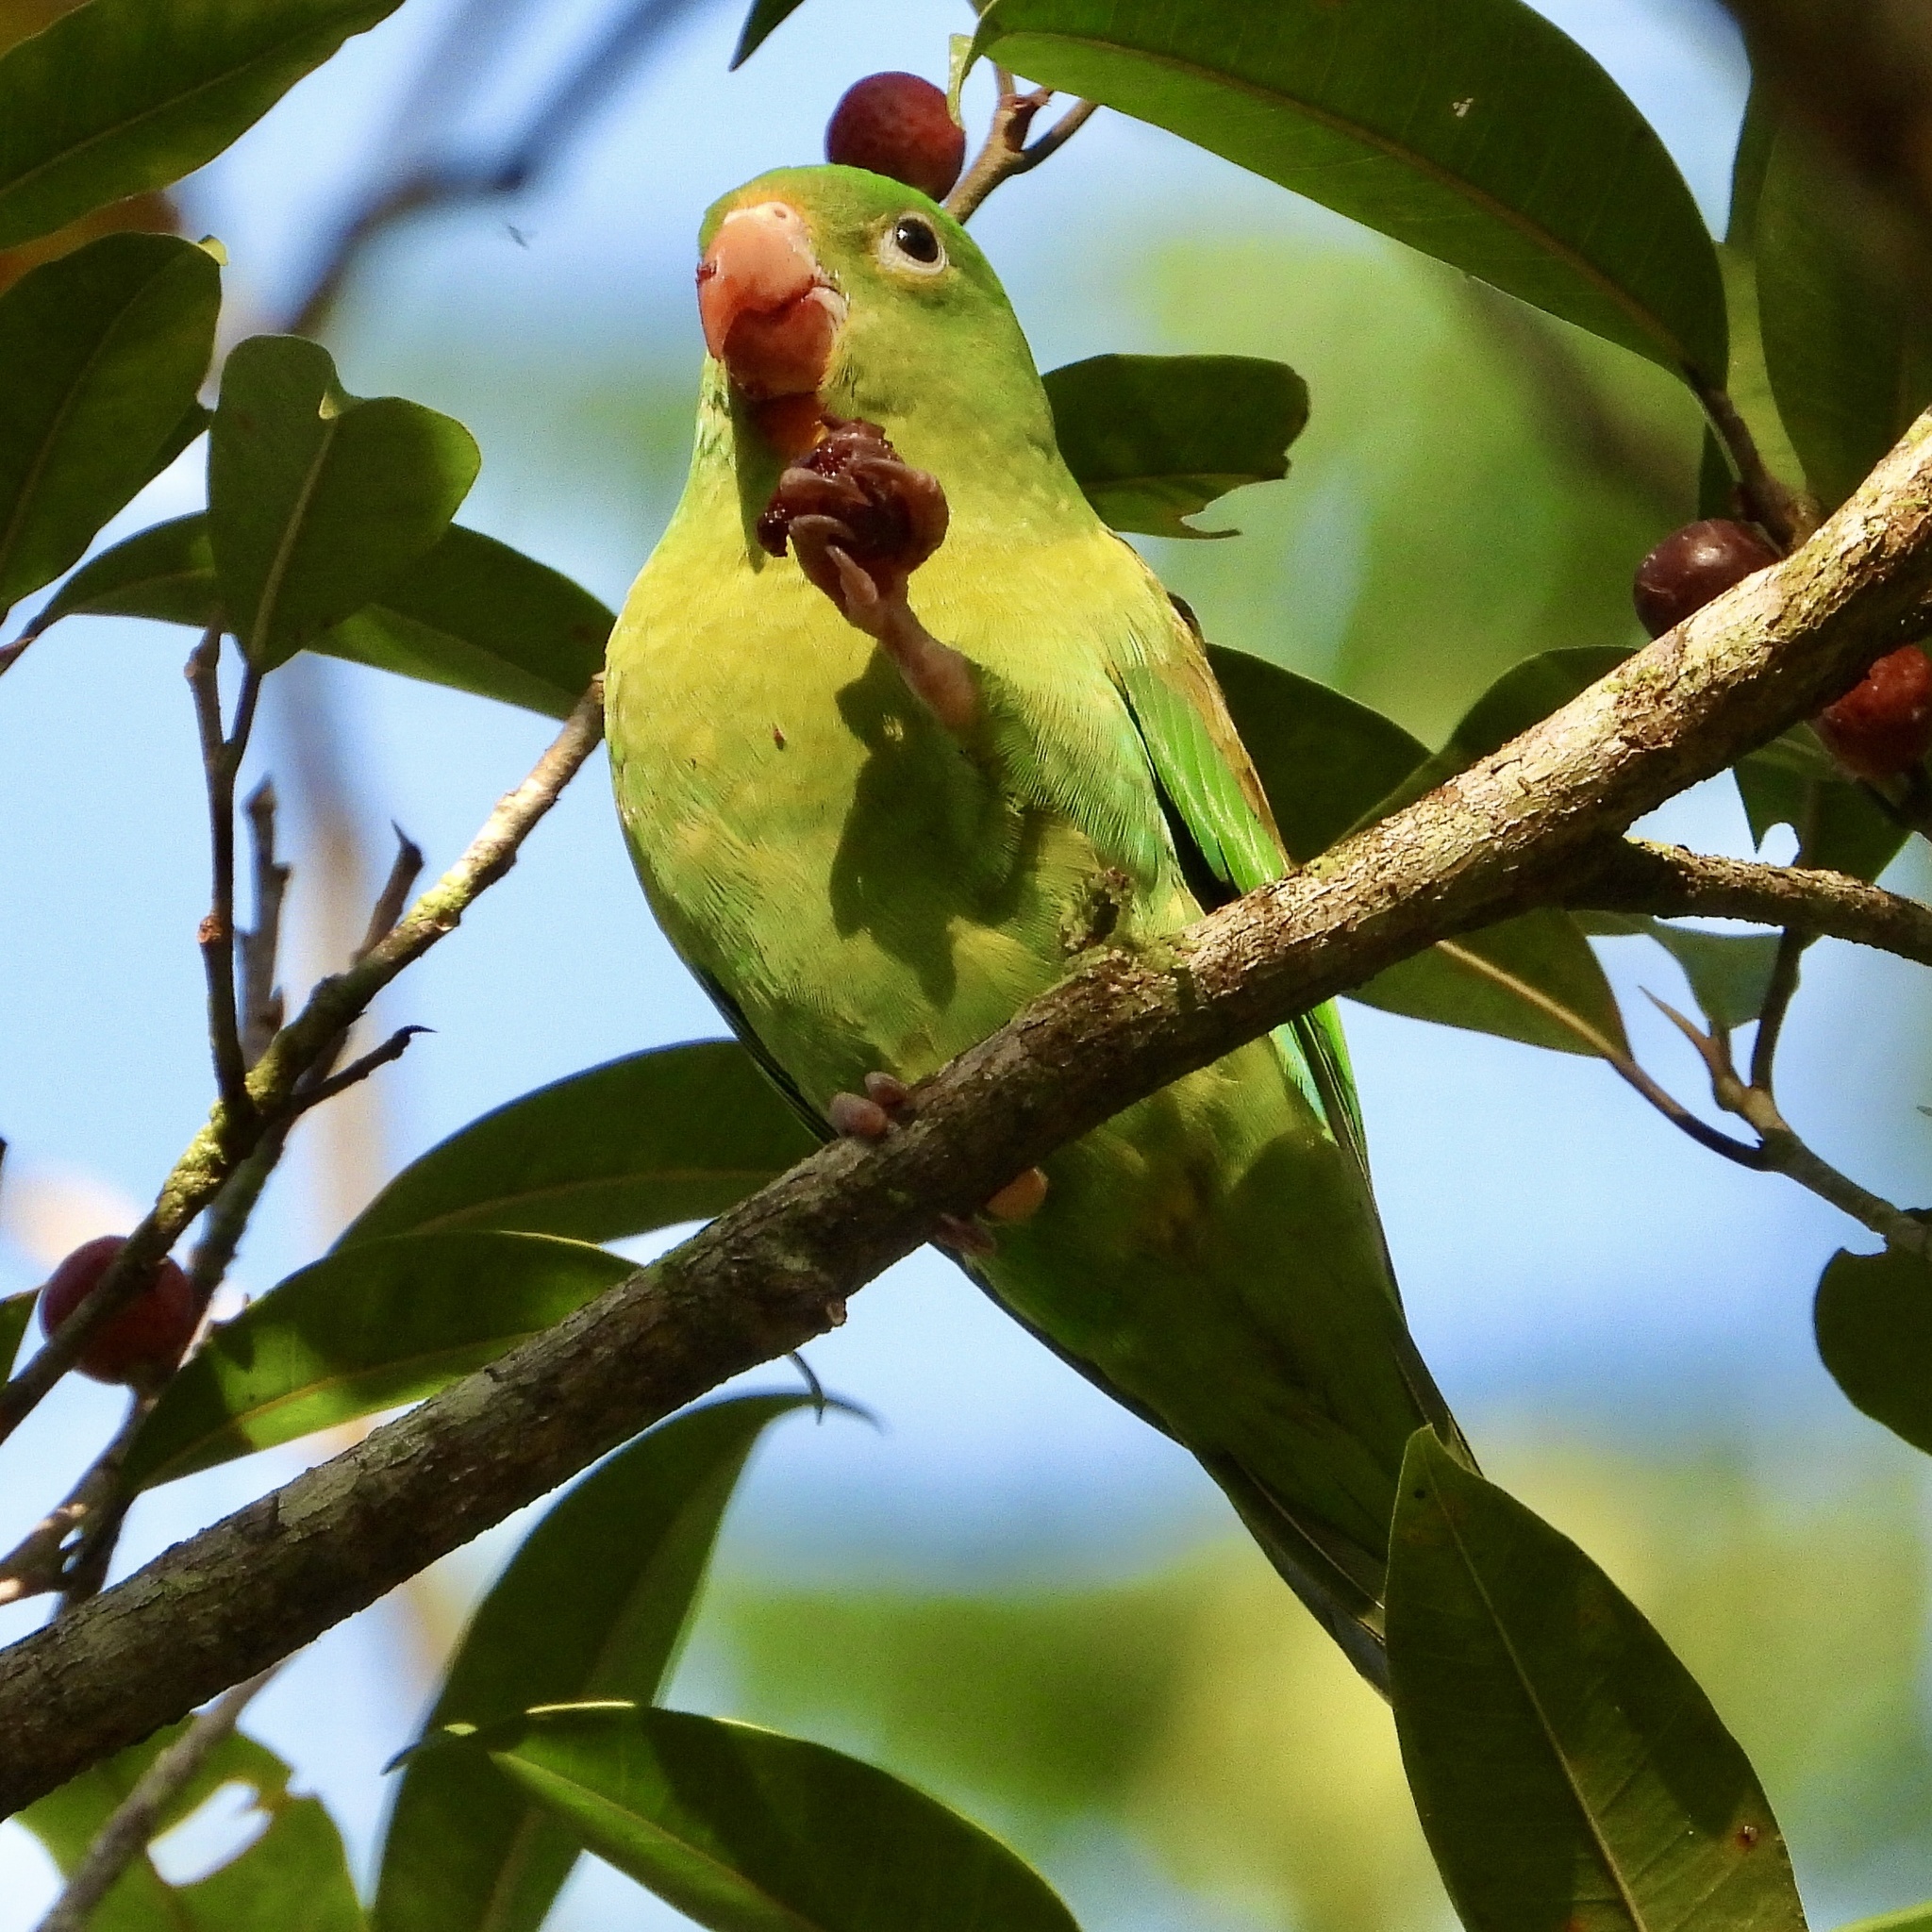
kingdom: Animalia
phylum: Chordata
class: Aves
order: Psittaciformes
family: Psittacidae
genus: Brotogeris
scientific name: Brotogeris jugularis
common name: Orange-chinned parakeet
